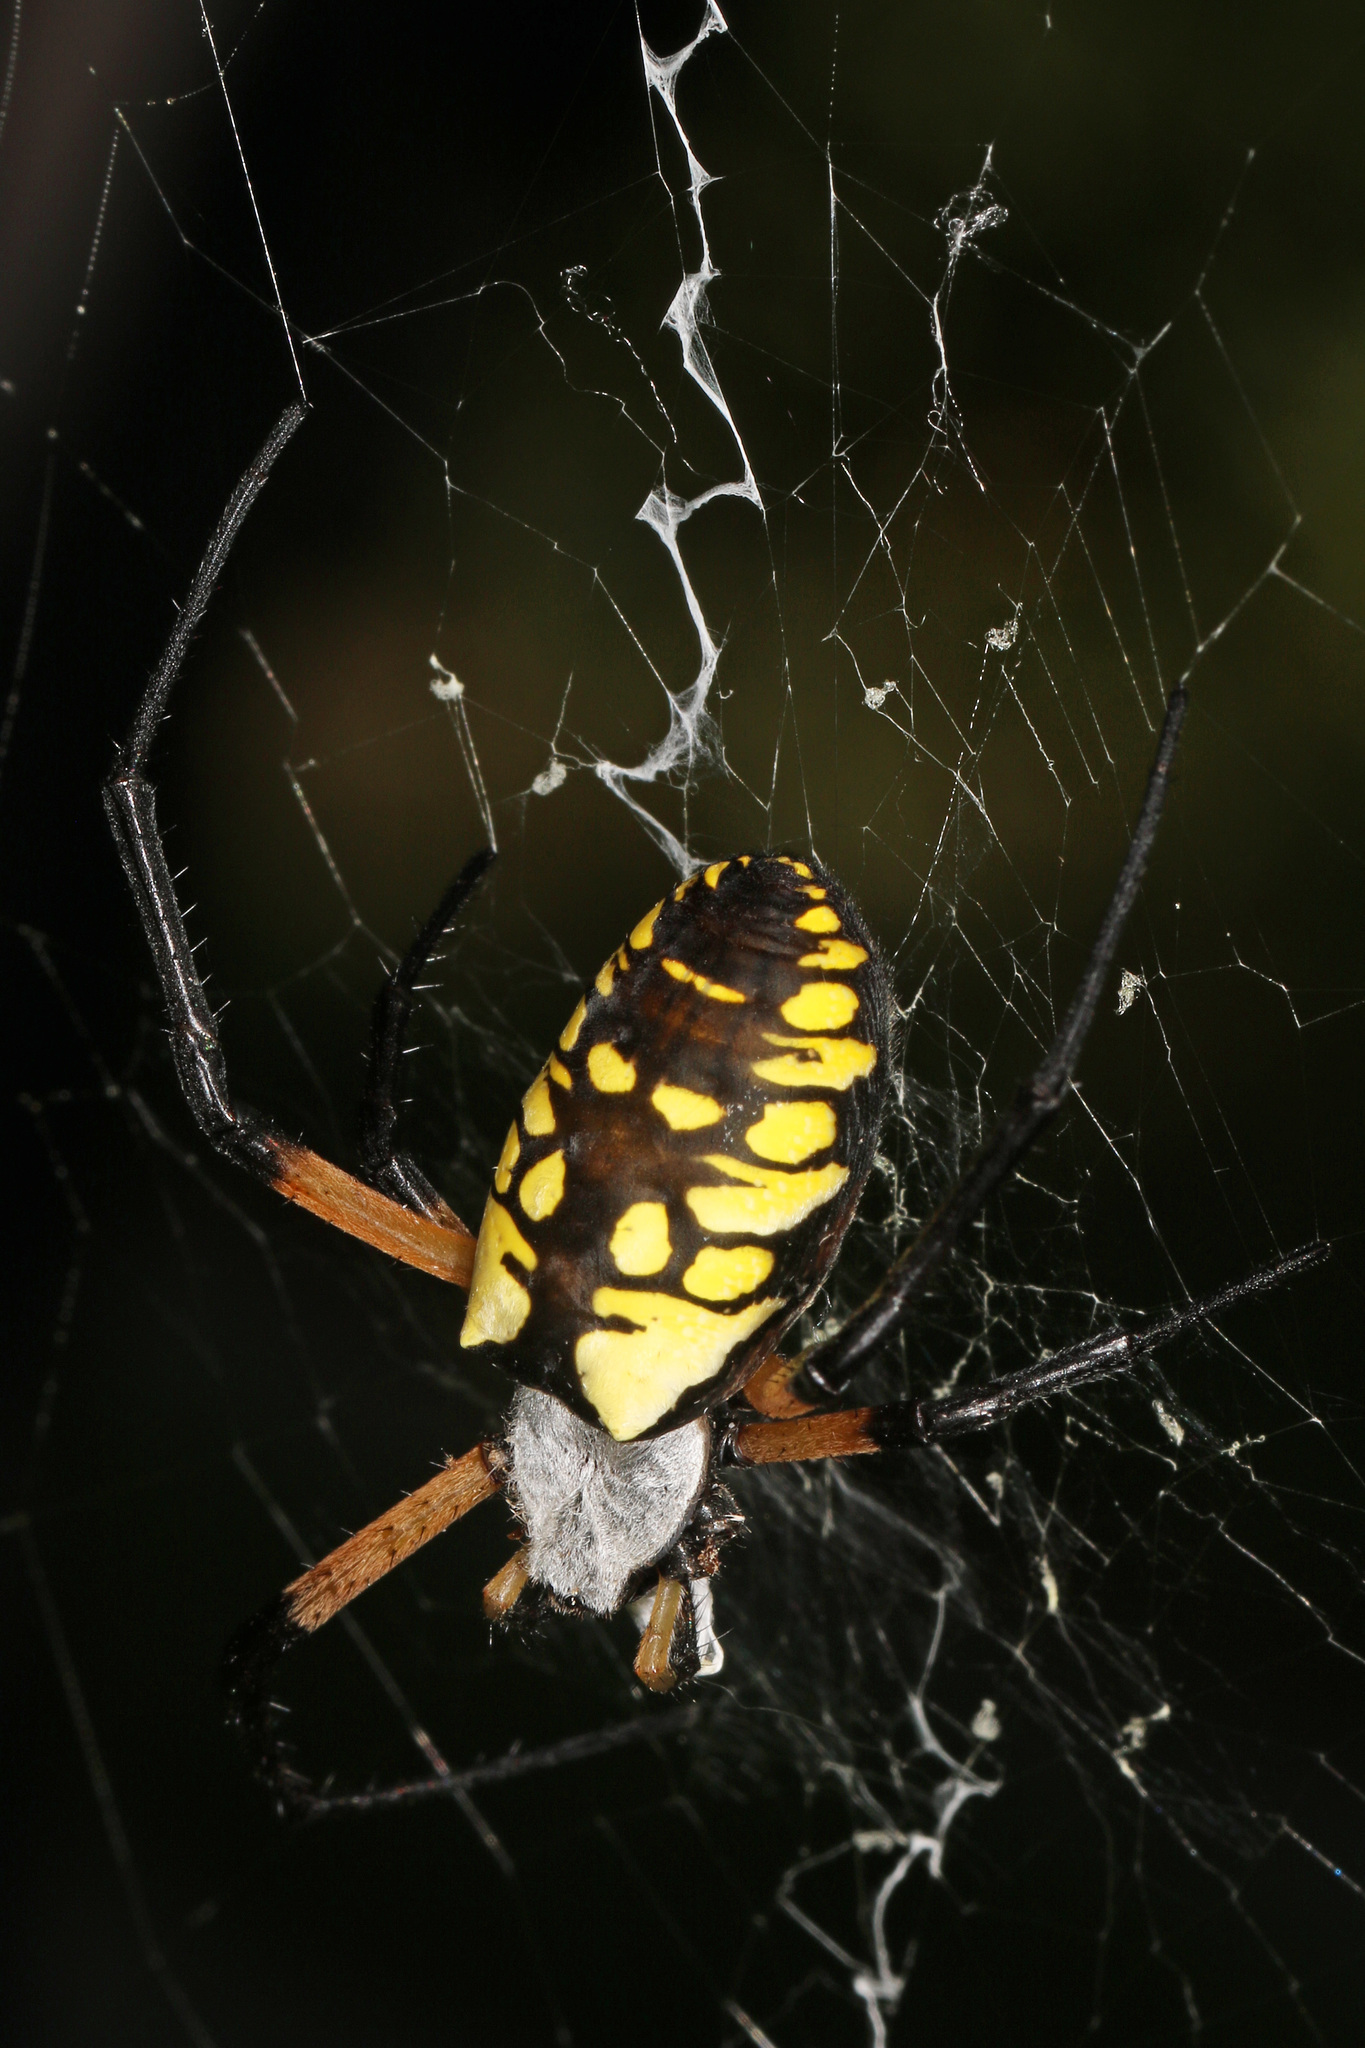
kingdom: Animalia
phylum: Arthropoda
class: Arachnida
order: Araneae
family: Araneidae
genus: Argiope
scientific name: Argiope aurantia
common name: Orb weavers
